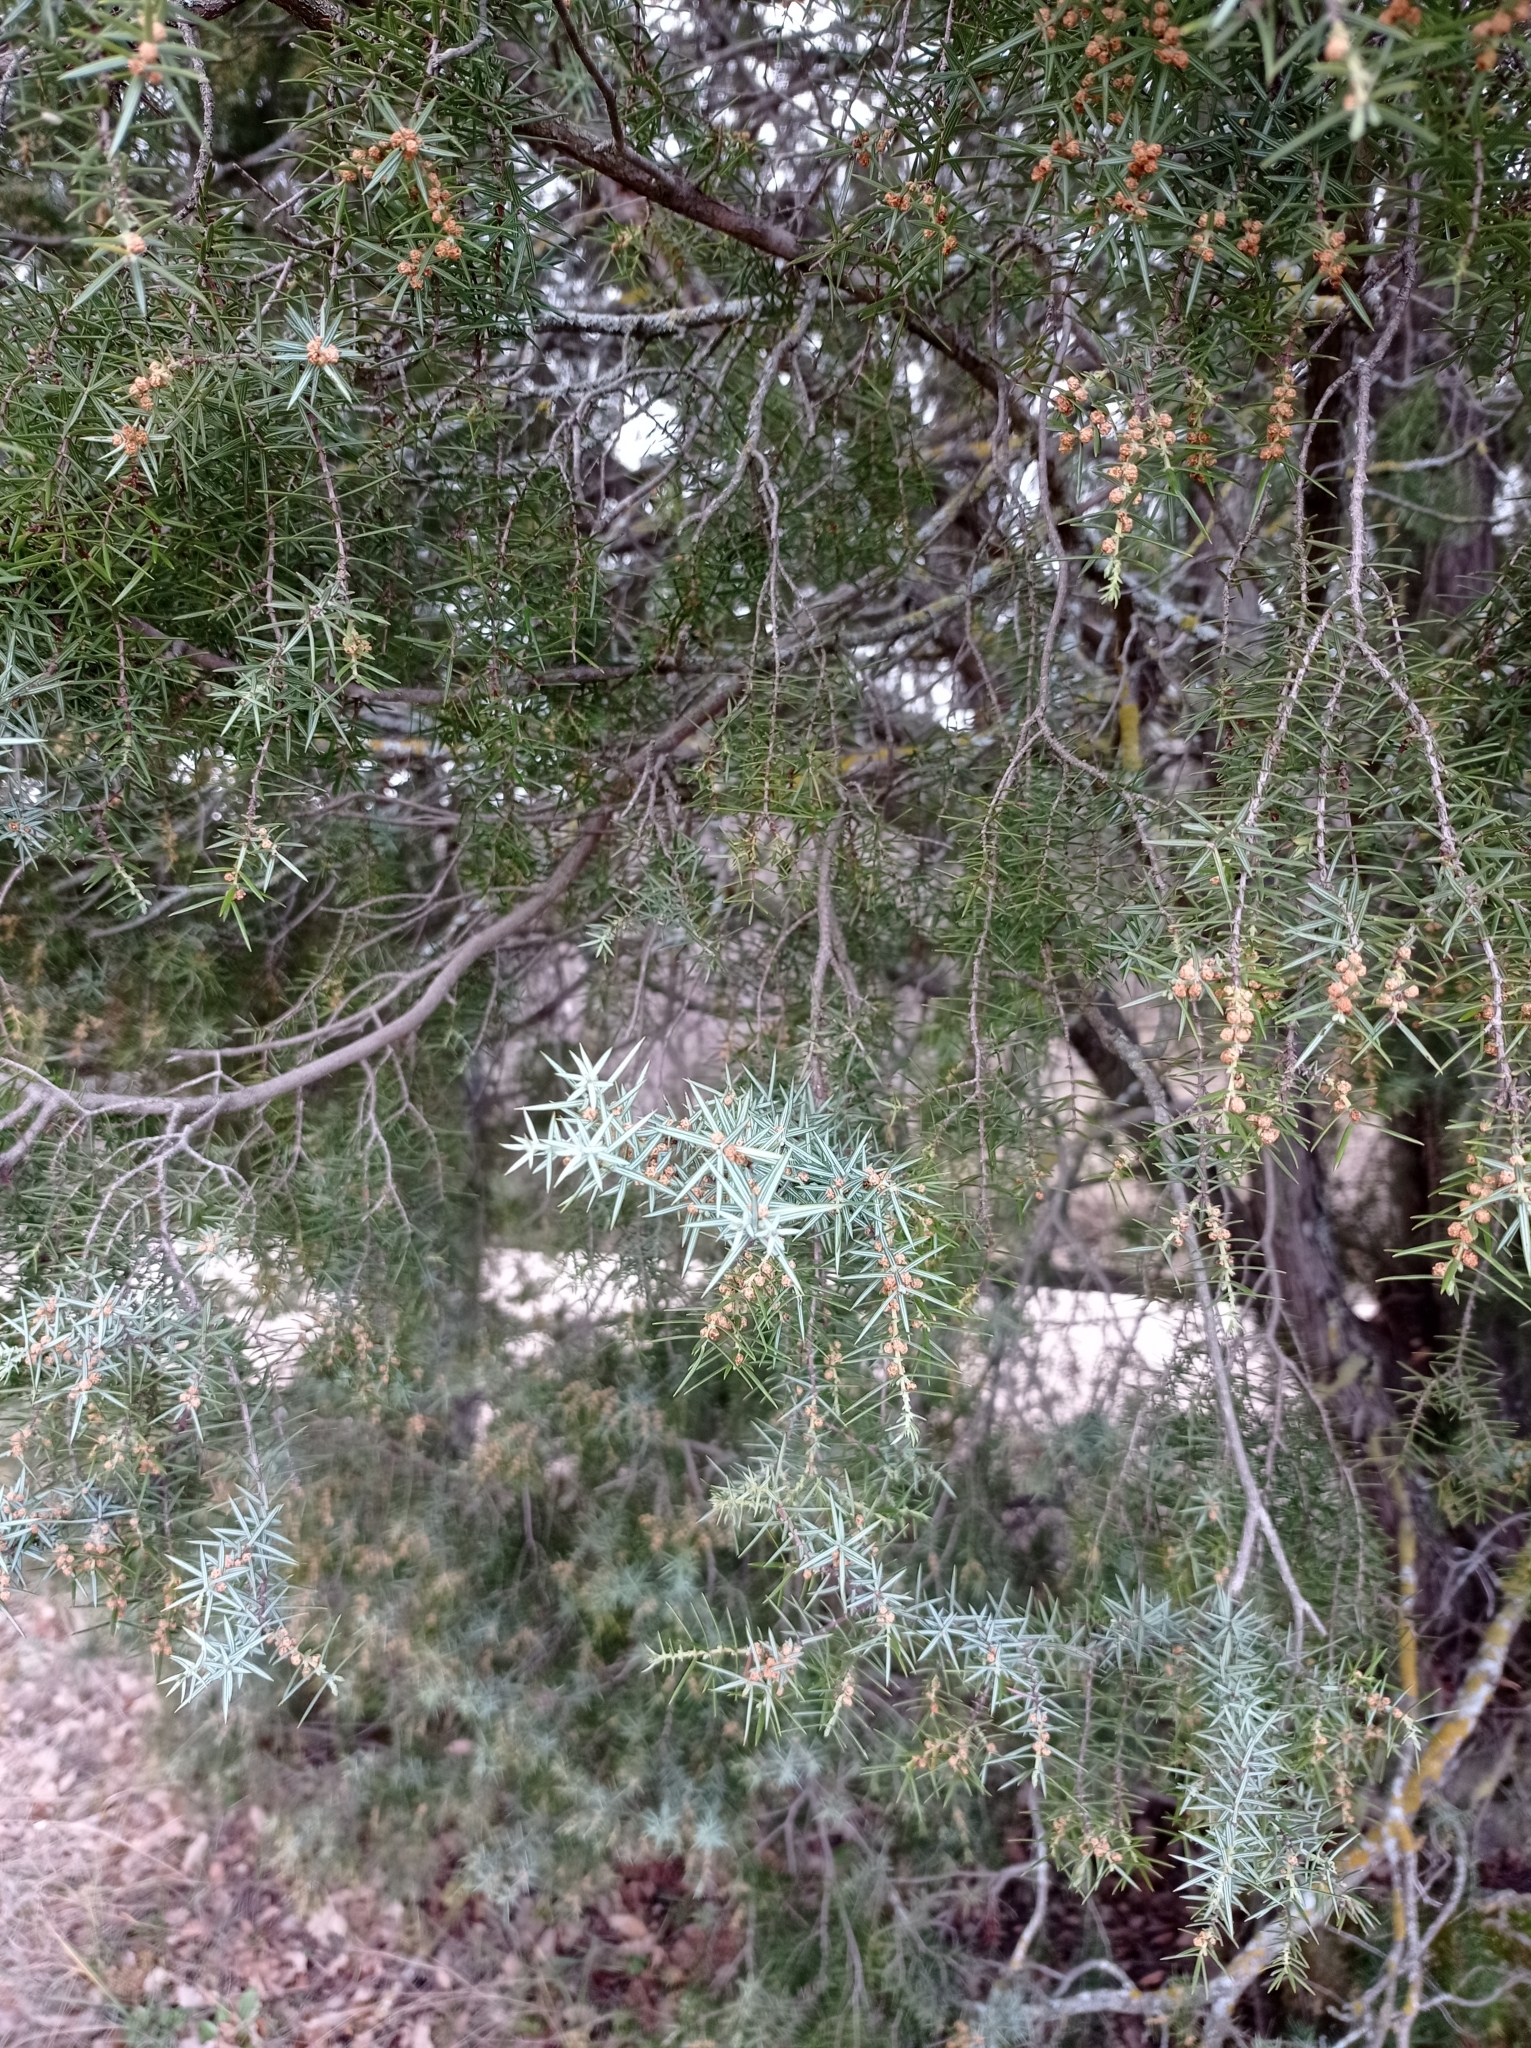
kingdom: Plantae
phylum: Tracheophyta
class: Pinopsida
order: Pinales
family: Cupressaceae
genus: Juniperus
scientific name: Juniperus oxycedrus
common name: Prickly juniper
